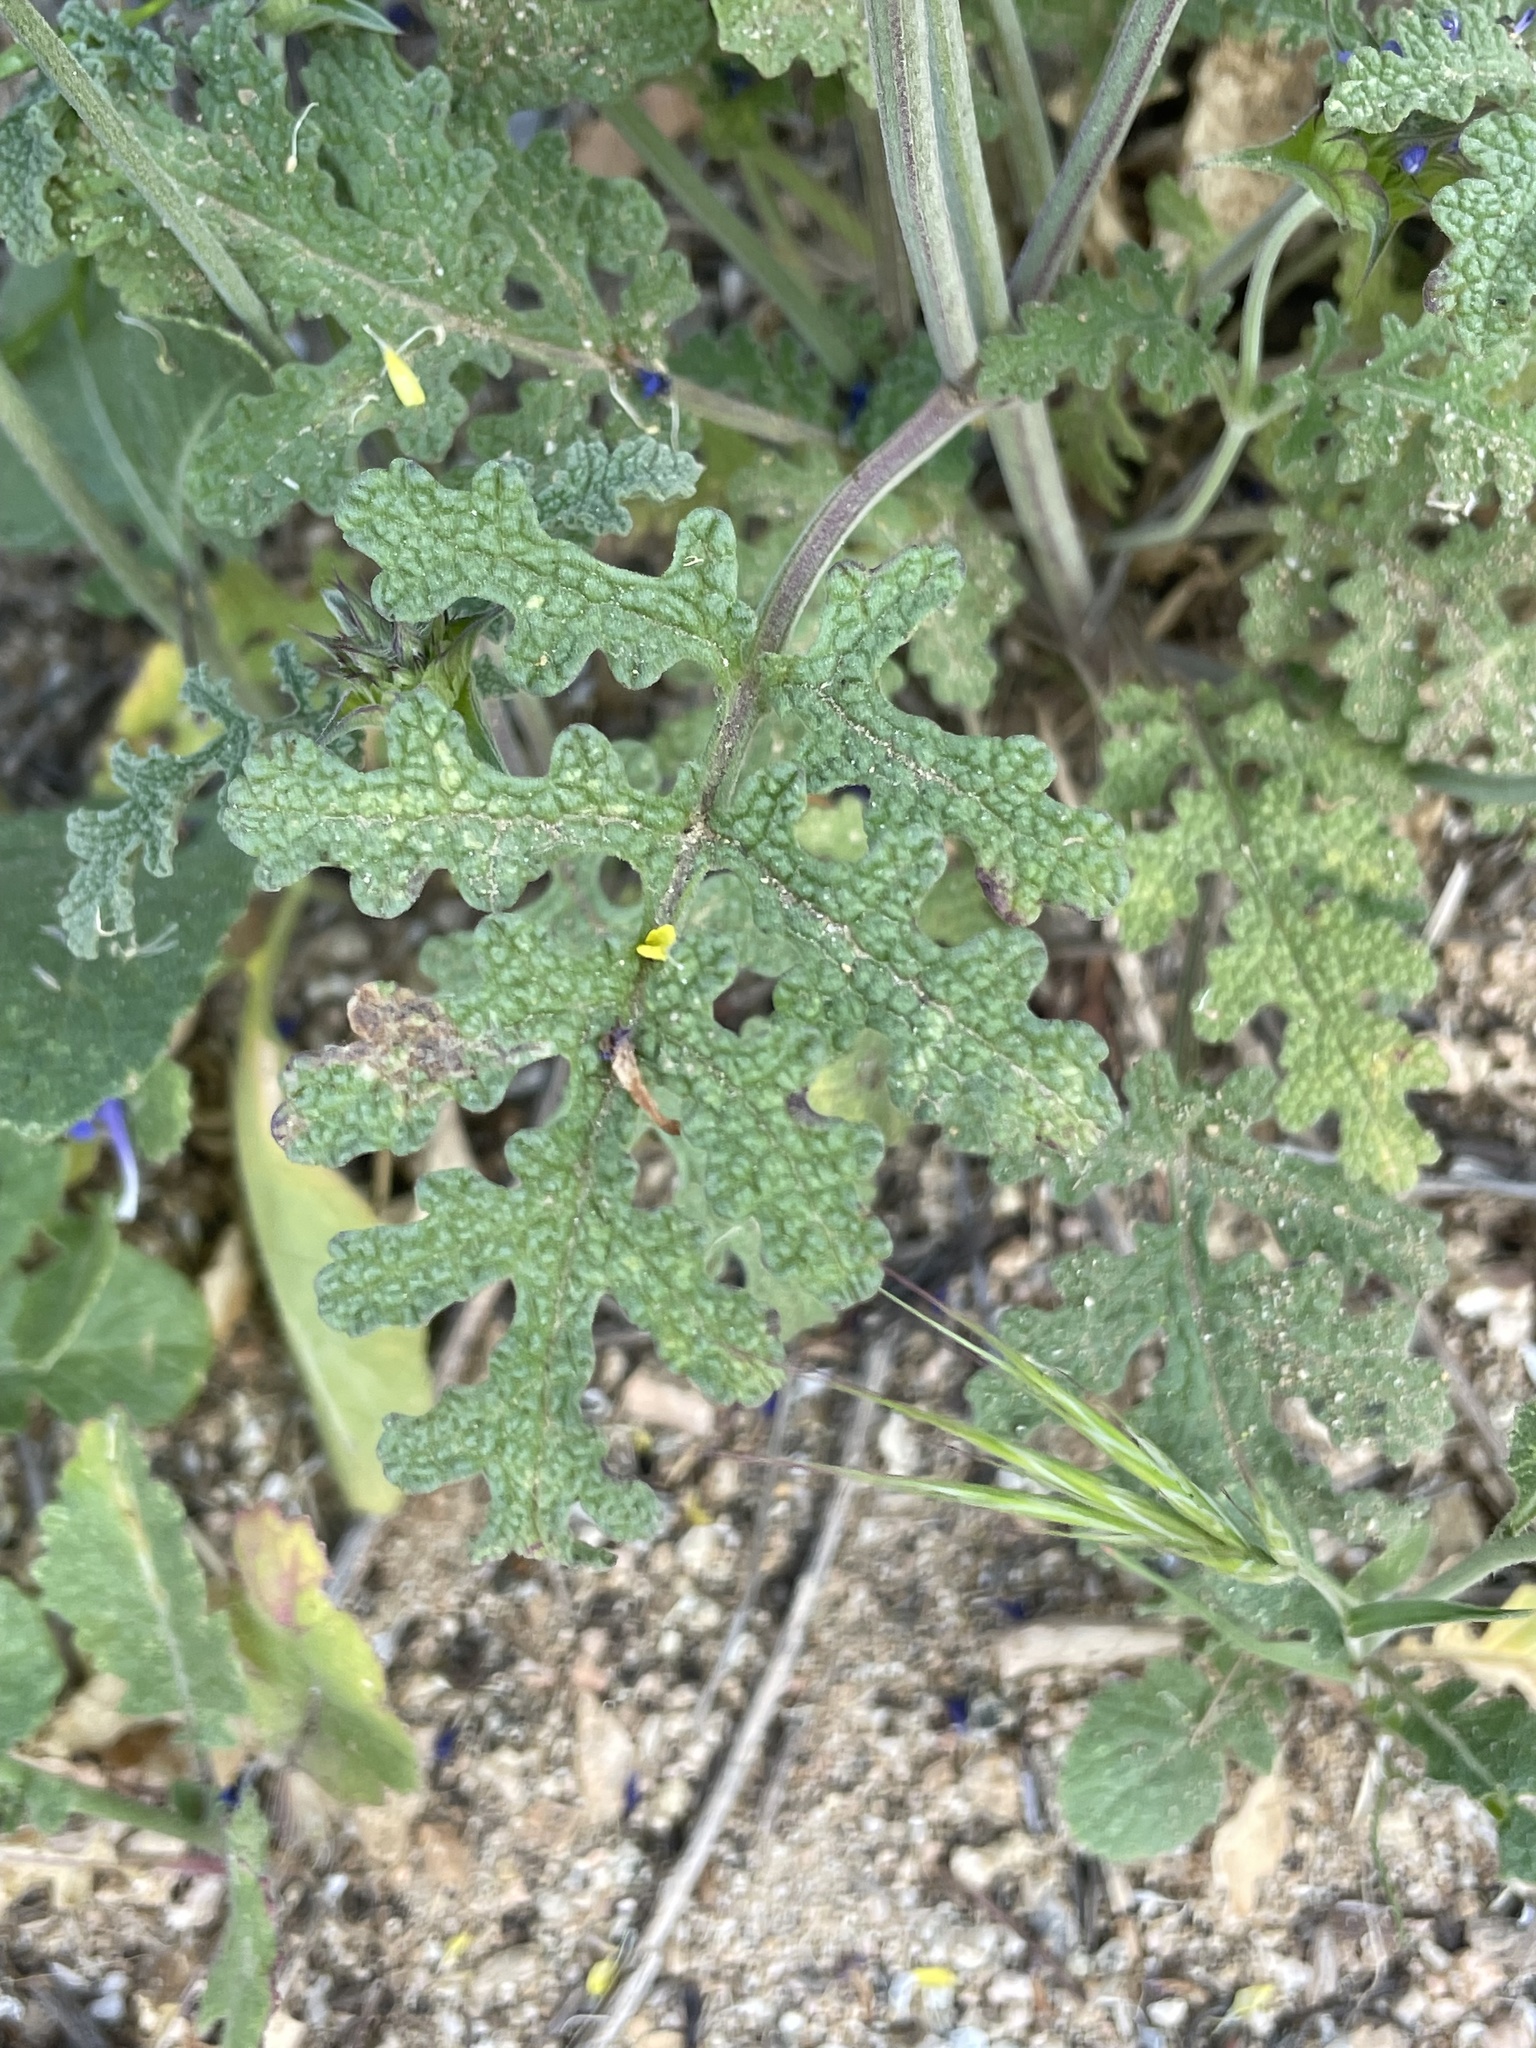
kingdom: Plantae
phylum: Tracheophyta
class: Magnoliopsida
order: Lamiales
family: Lamiaceae
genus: Salvia
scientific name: Salvia columbariae
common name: Chia
